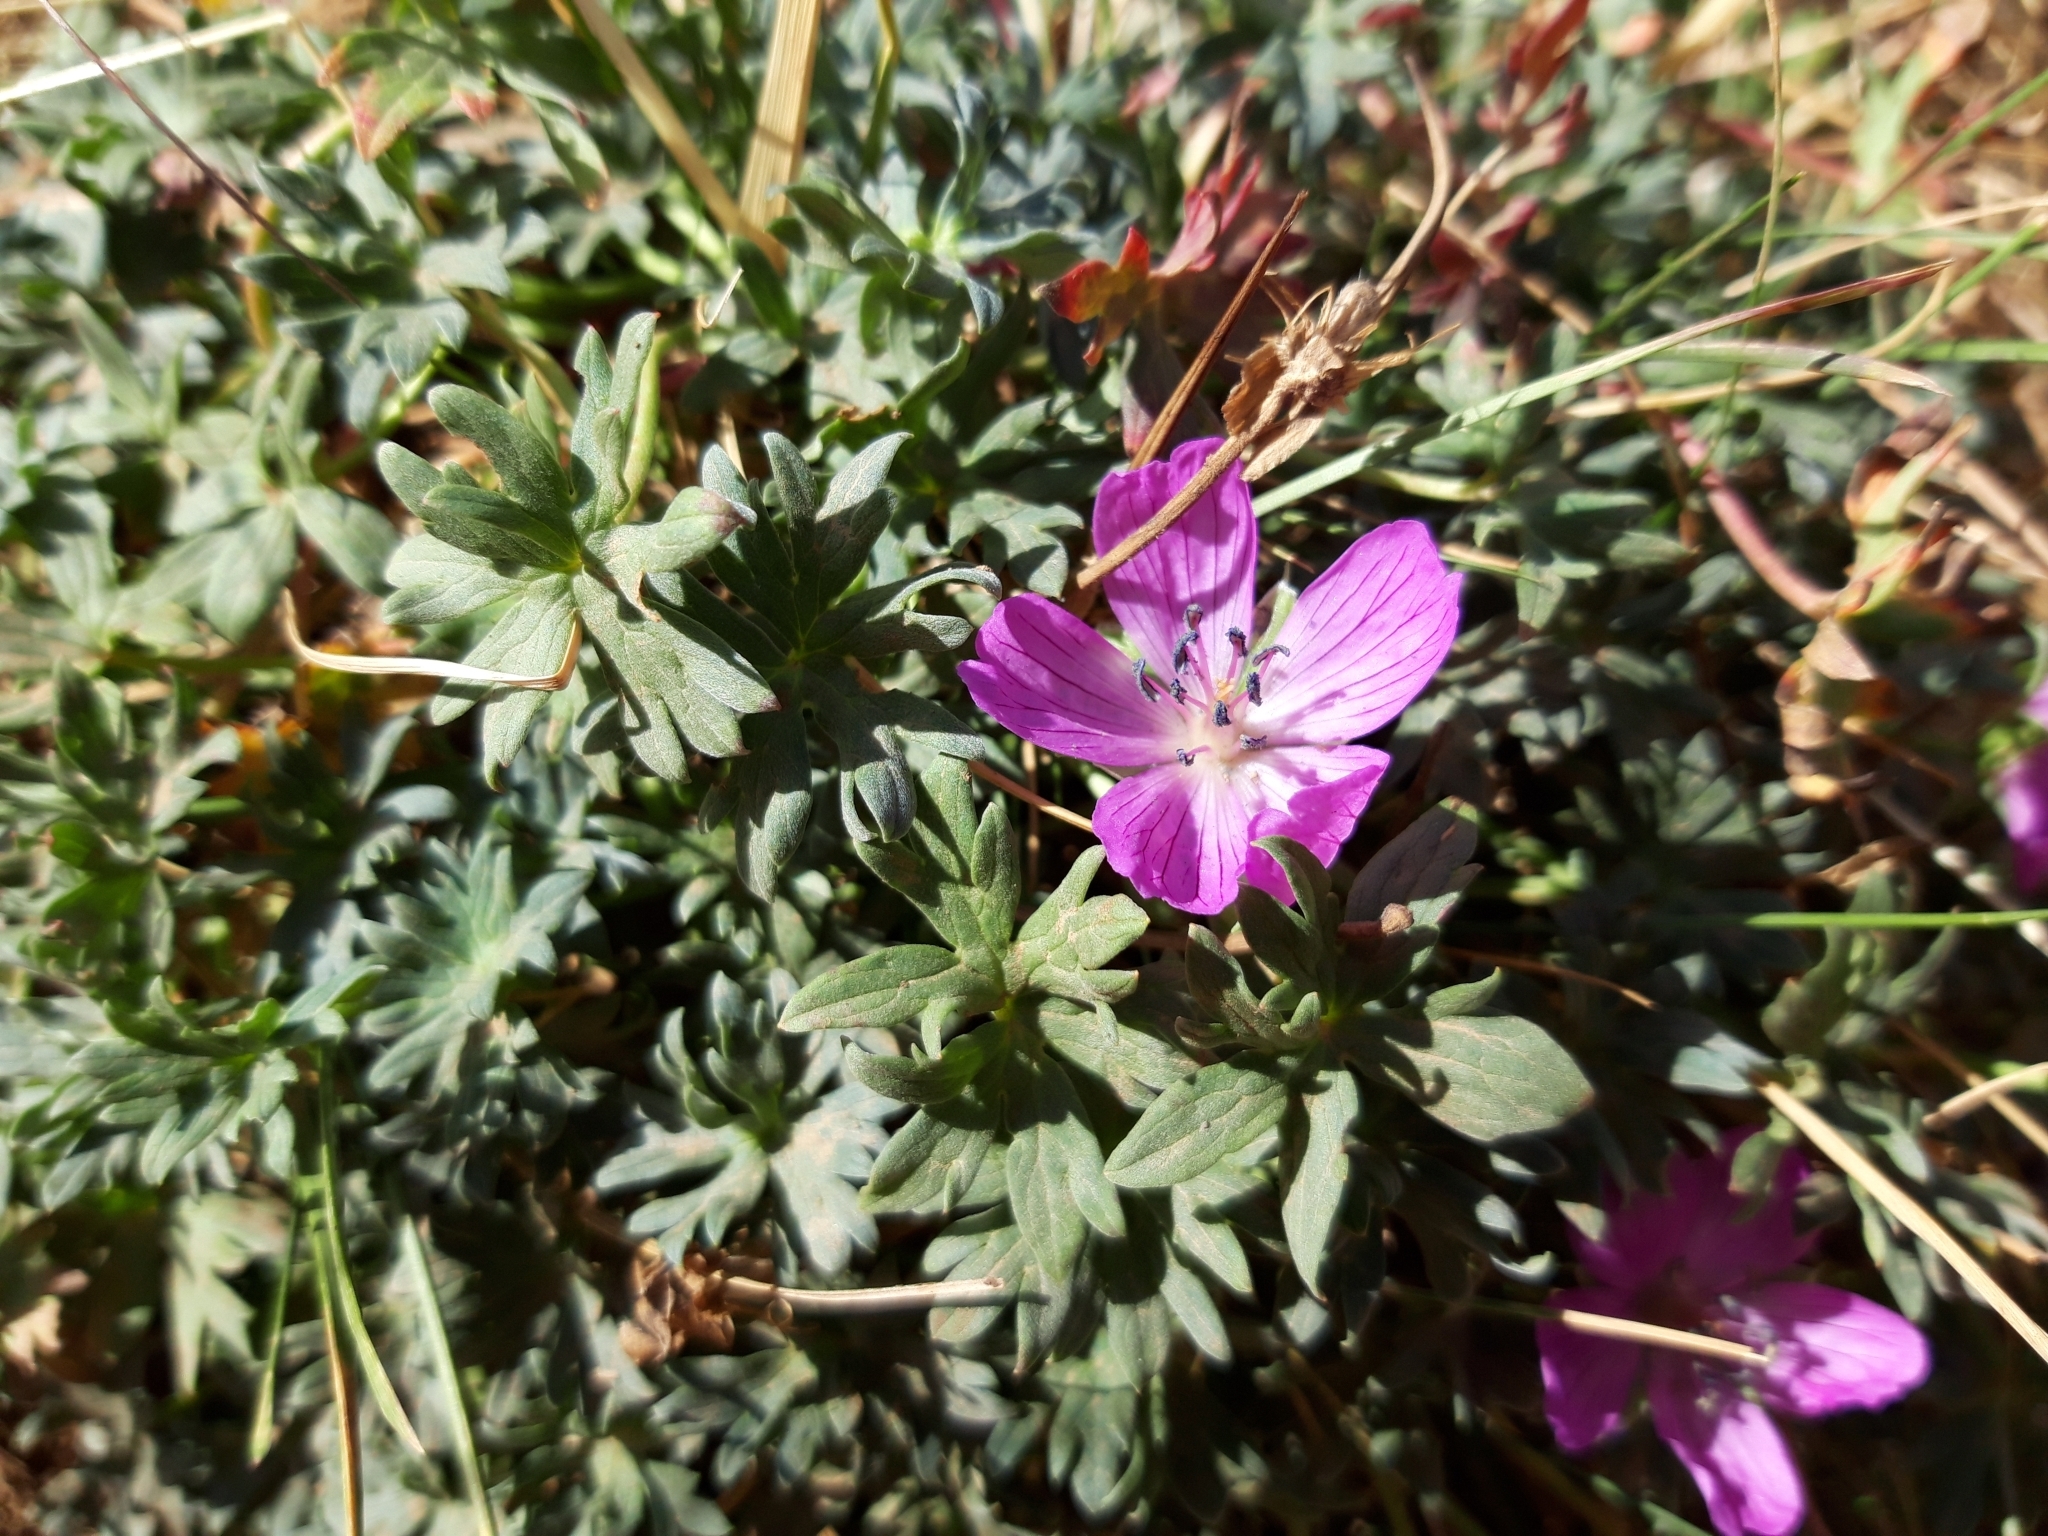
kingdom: Plantae
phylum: Tracheophyta
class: Magnoliopsida
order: Geraniales
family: Geraniaceae
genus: Geranium
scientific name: Geranium subargenteum
